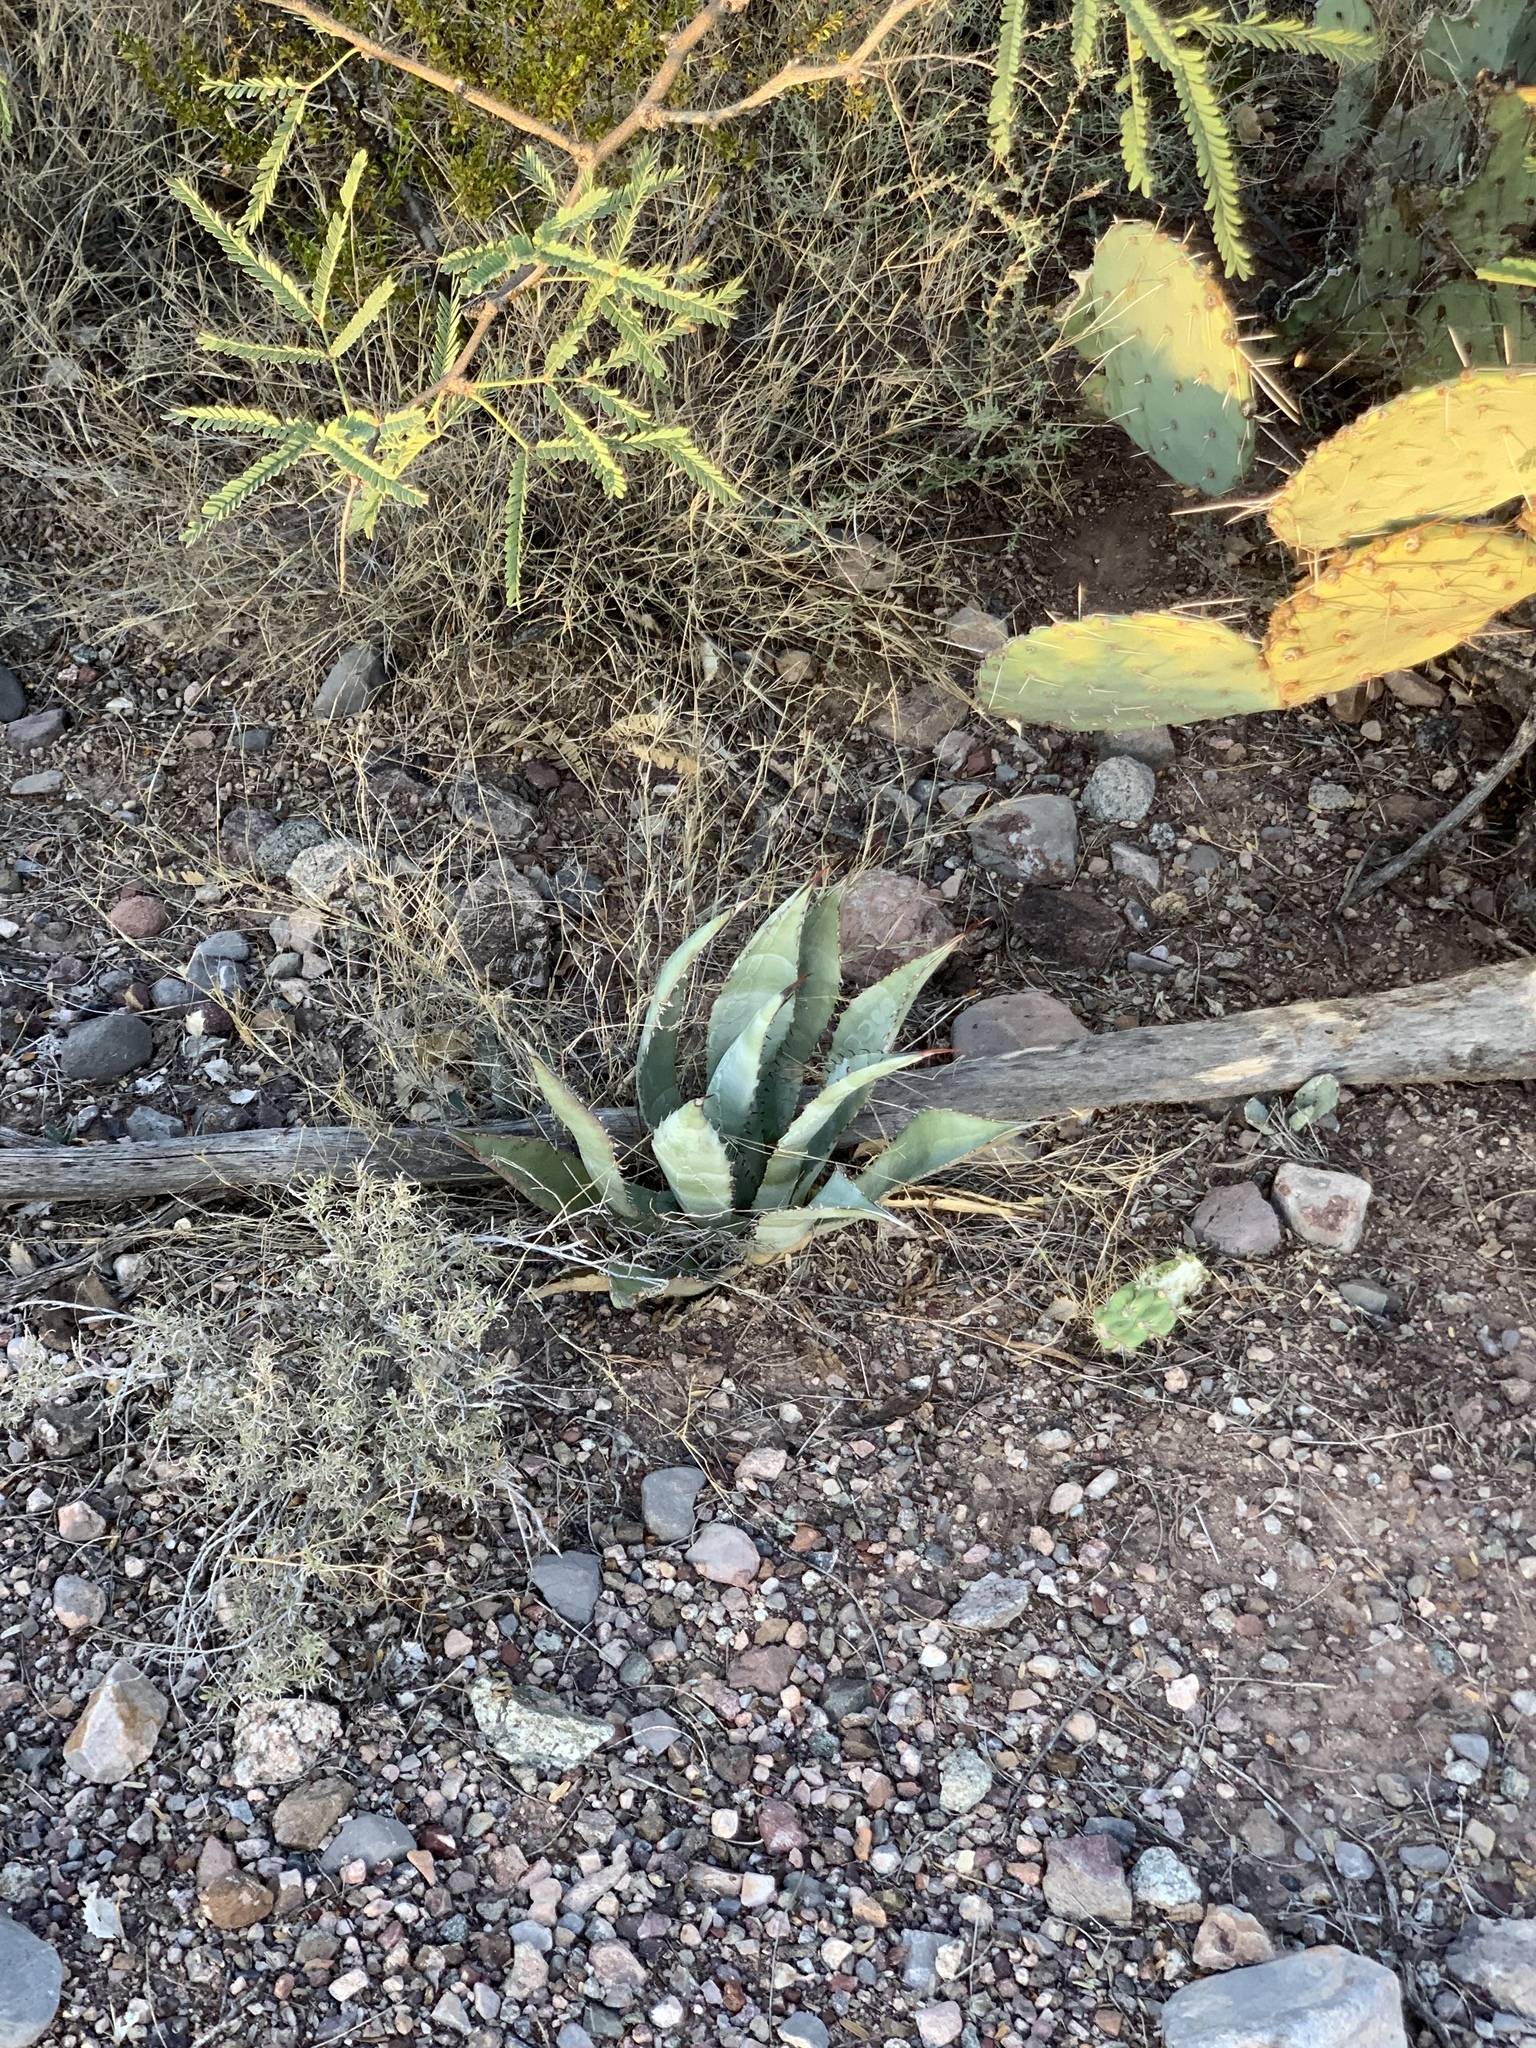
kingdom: Plantae
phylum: Tracheophyta
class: Liliopsida
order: Asparagales
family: Asparagaceae
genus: Agave
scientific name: Agave palmeri
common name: Palmer agave
